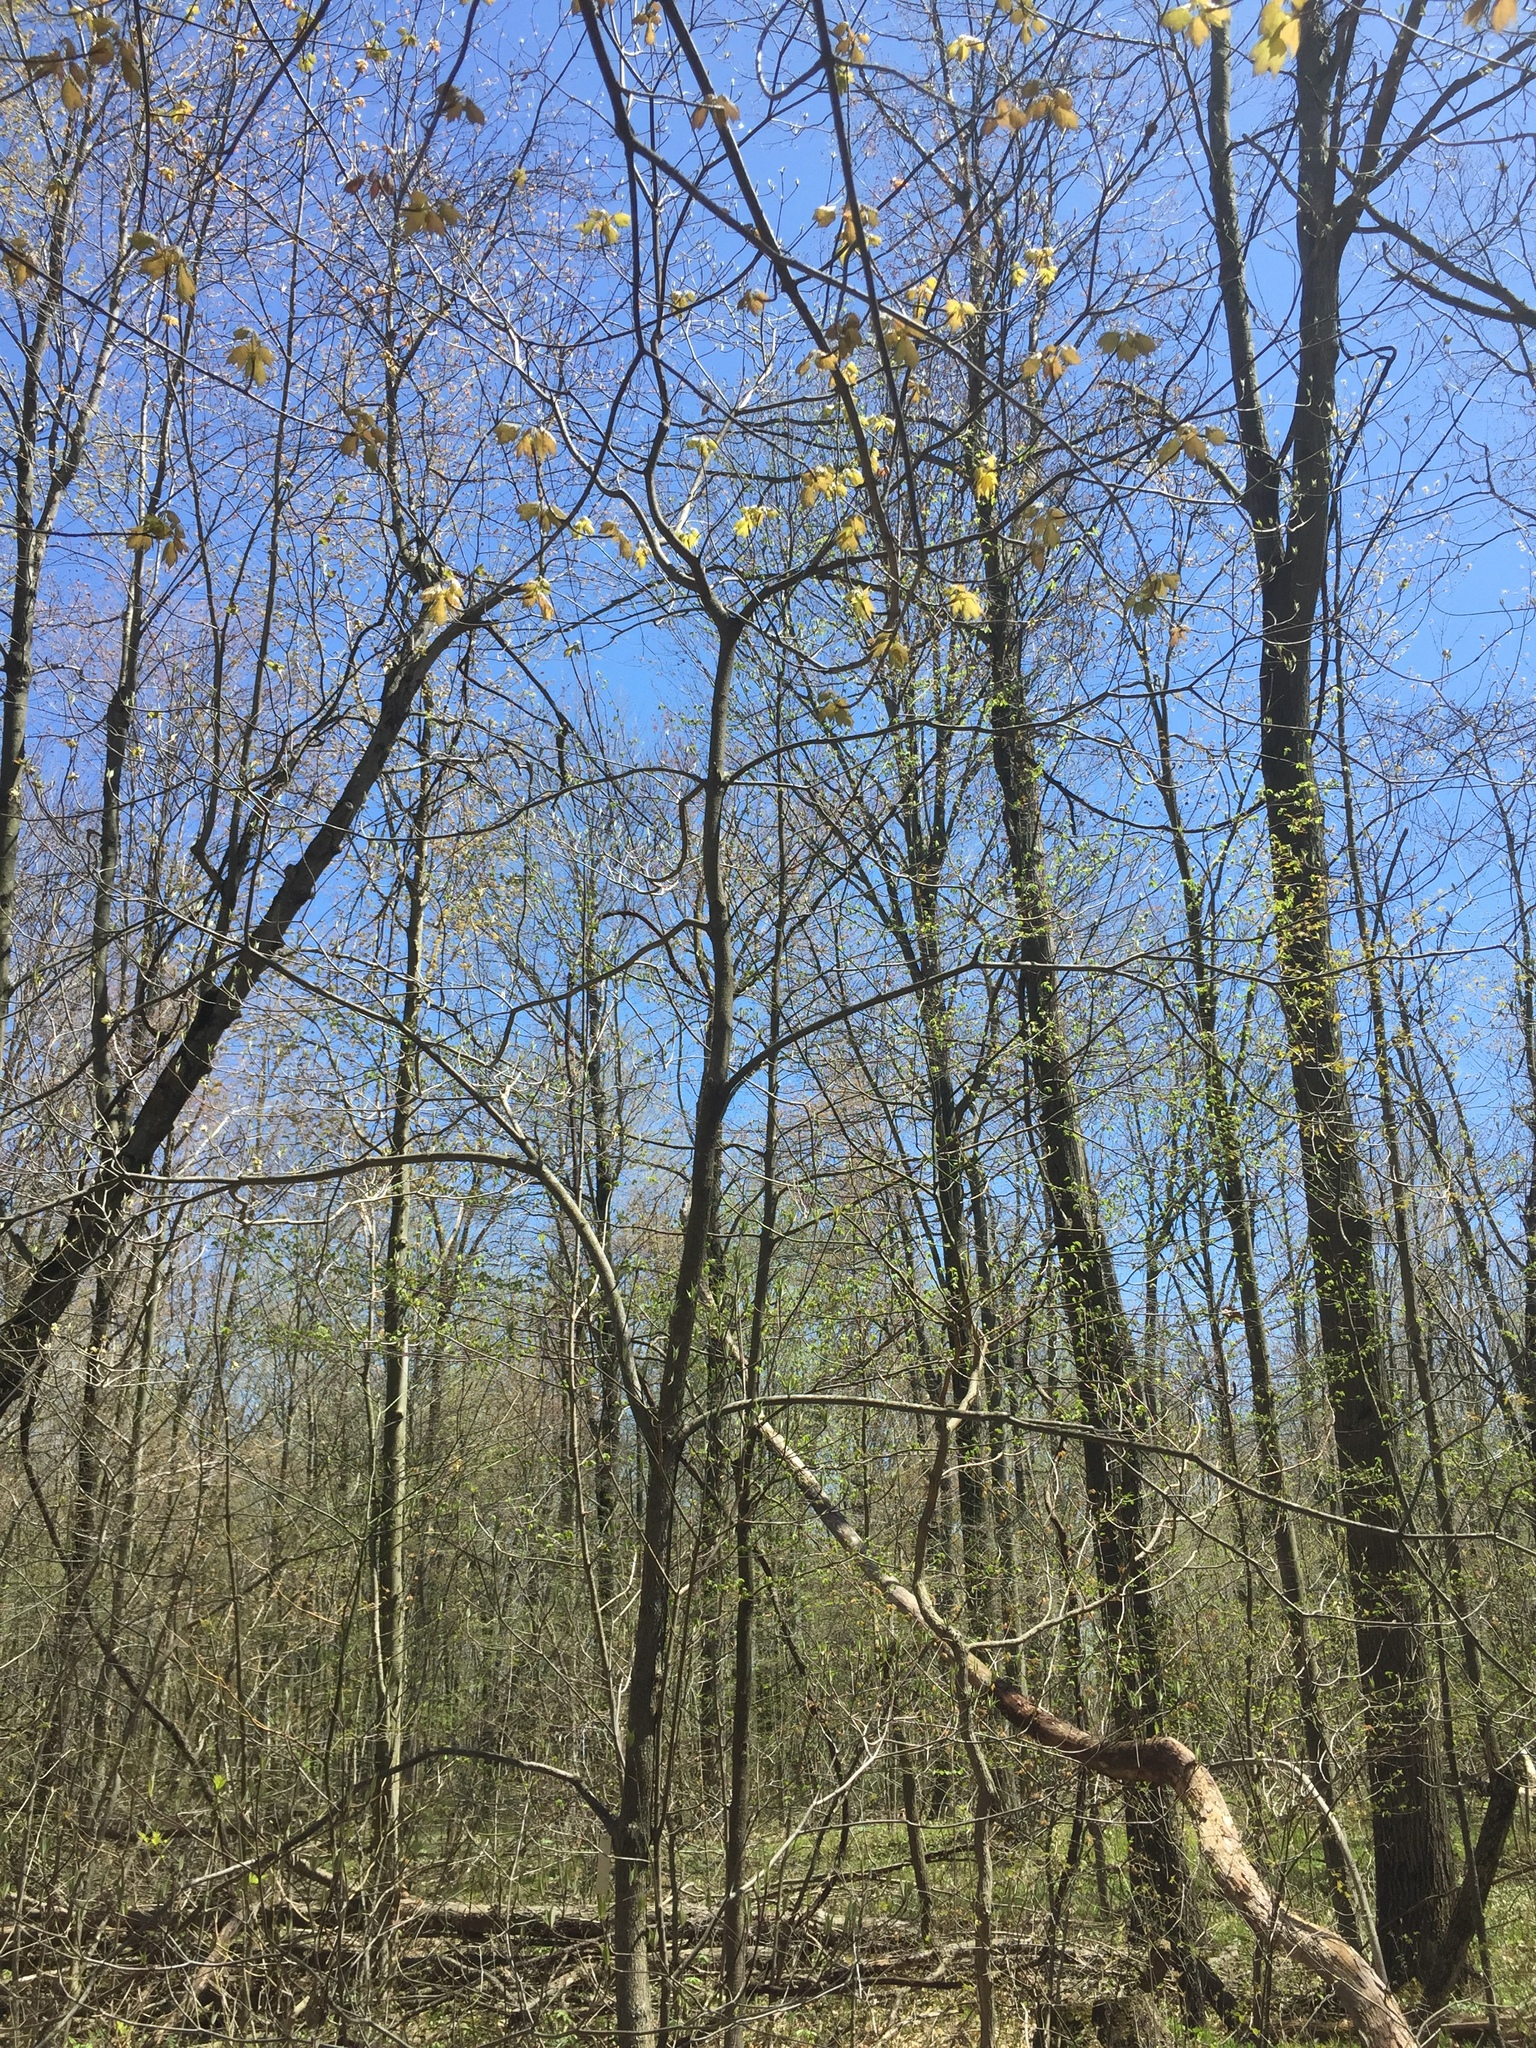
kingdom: Plantae
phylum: Tracheophyta
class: Magnoliopsida
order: Cornales
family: Cornaceae
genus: Cornus
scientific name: Cornus florida
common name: Flowering dogwood
